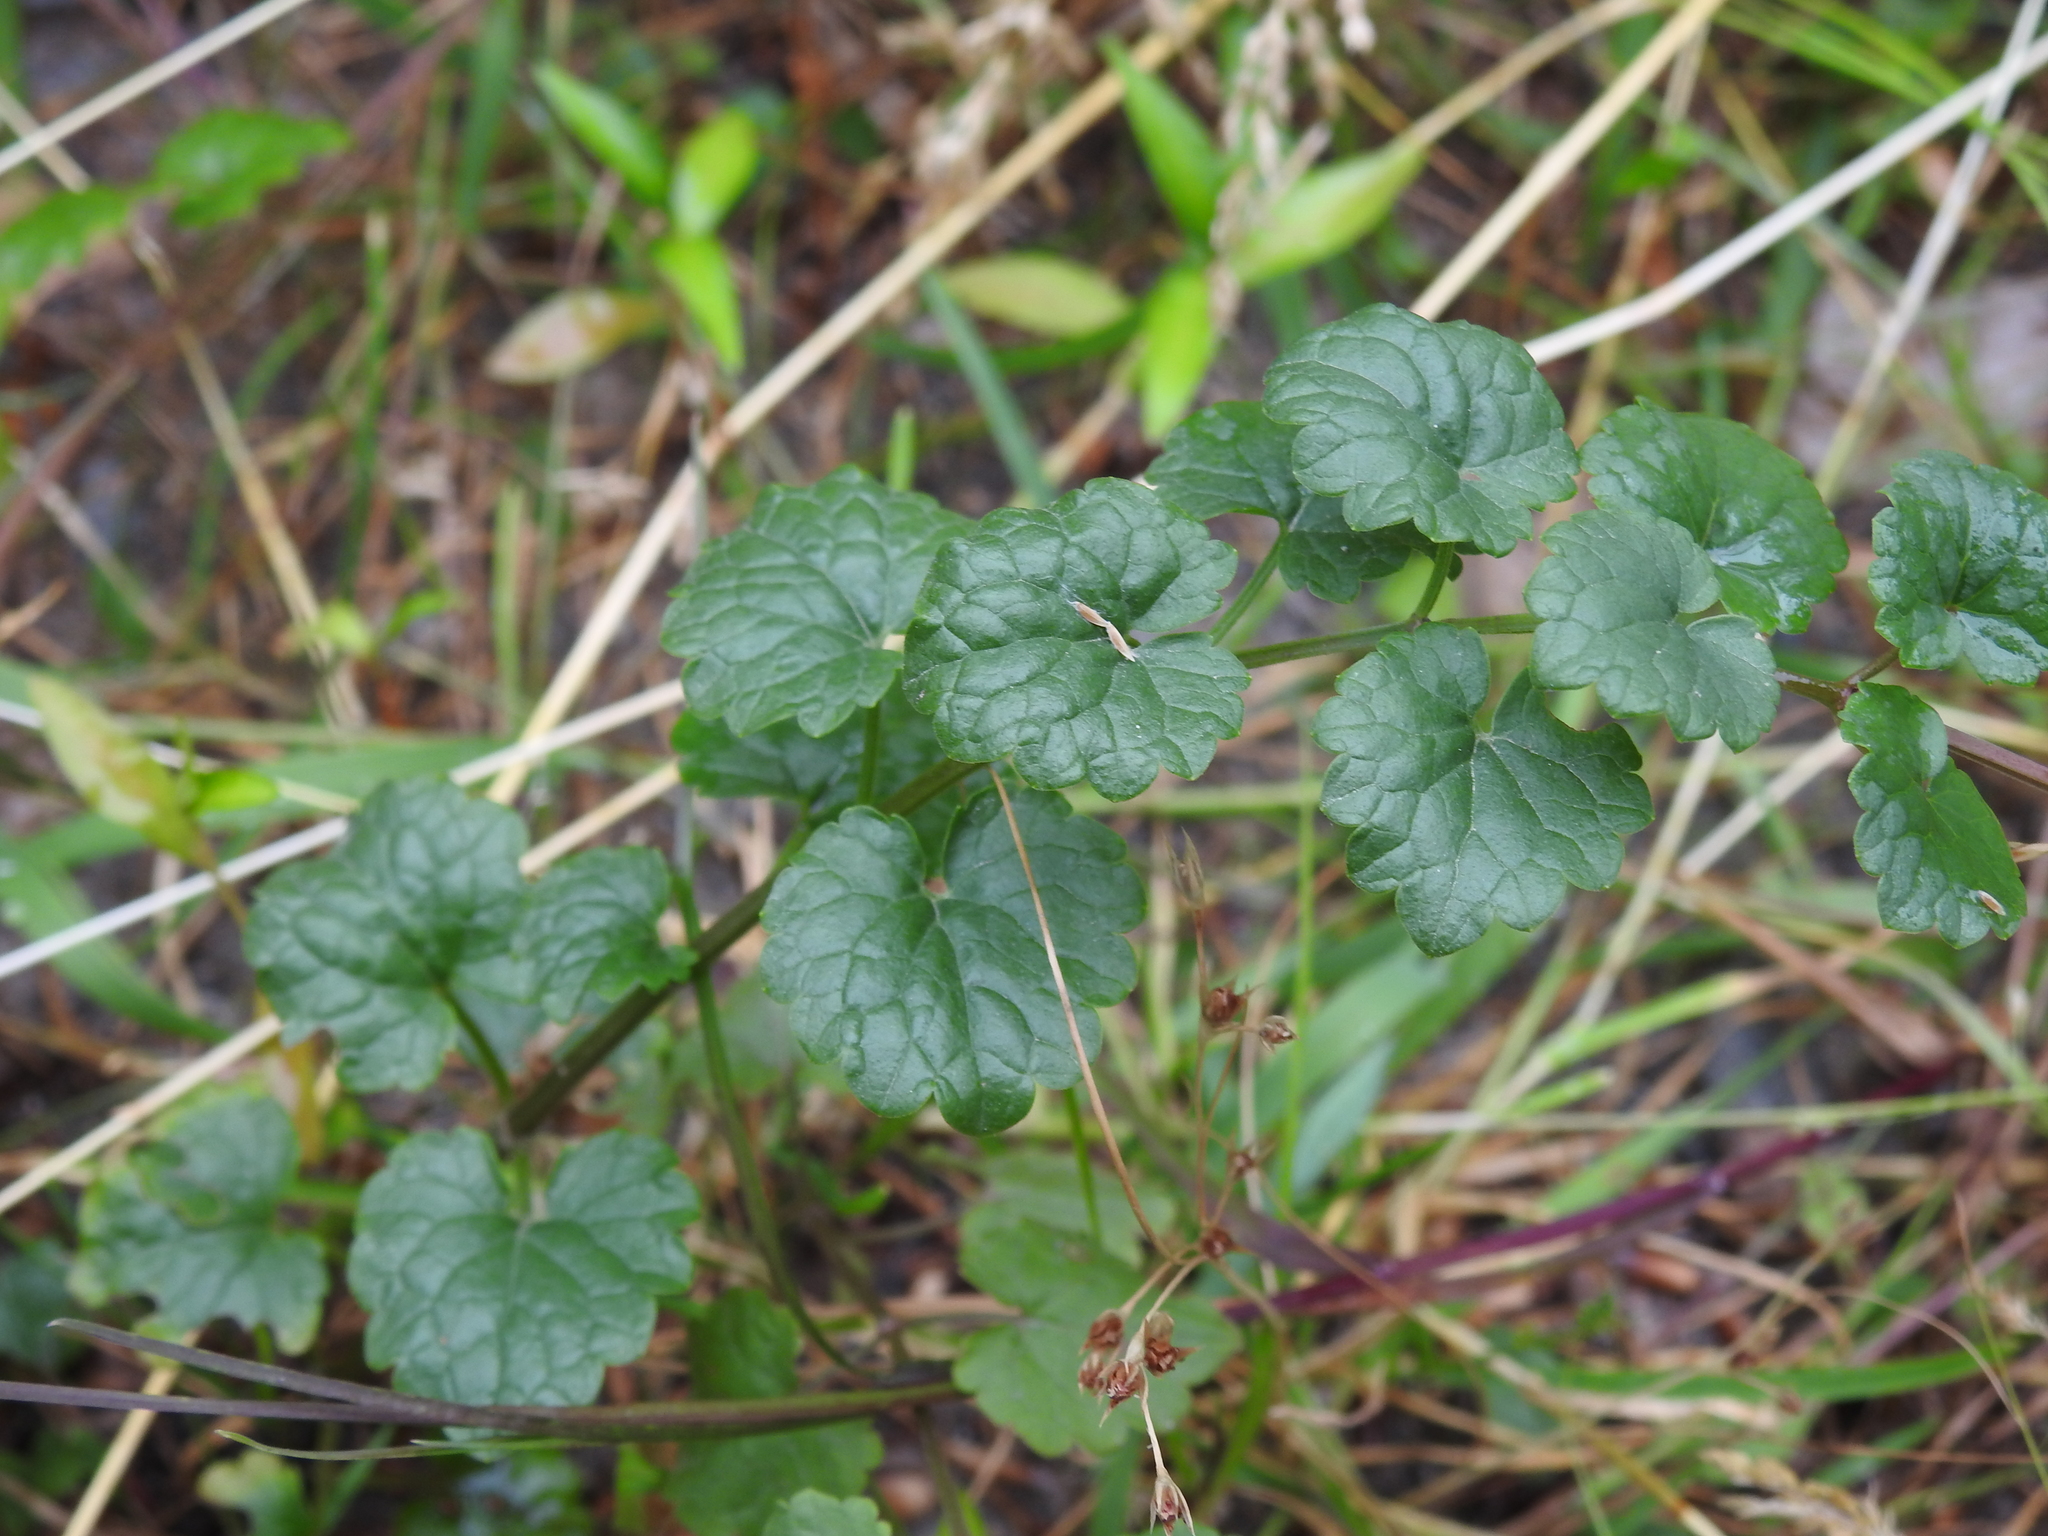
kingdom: Plantae
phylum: Tracheophyta
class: Magnoliopsida
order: Lamiales
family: Lamiaceae
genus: Glechoma
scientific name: Glechoma hederacea
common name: Ground ivy
